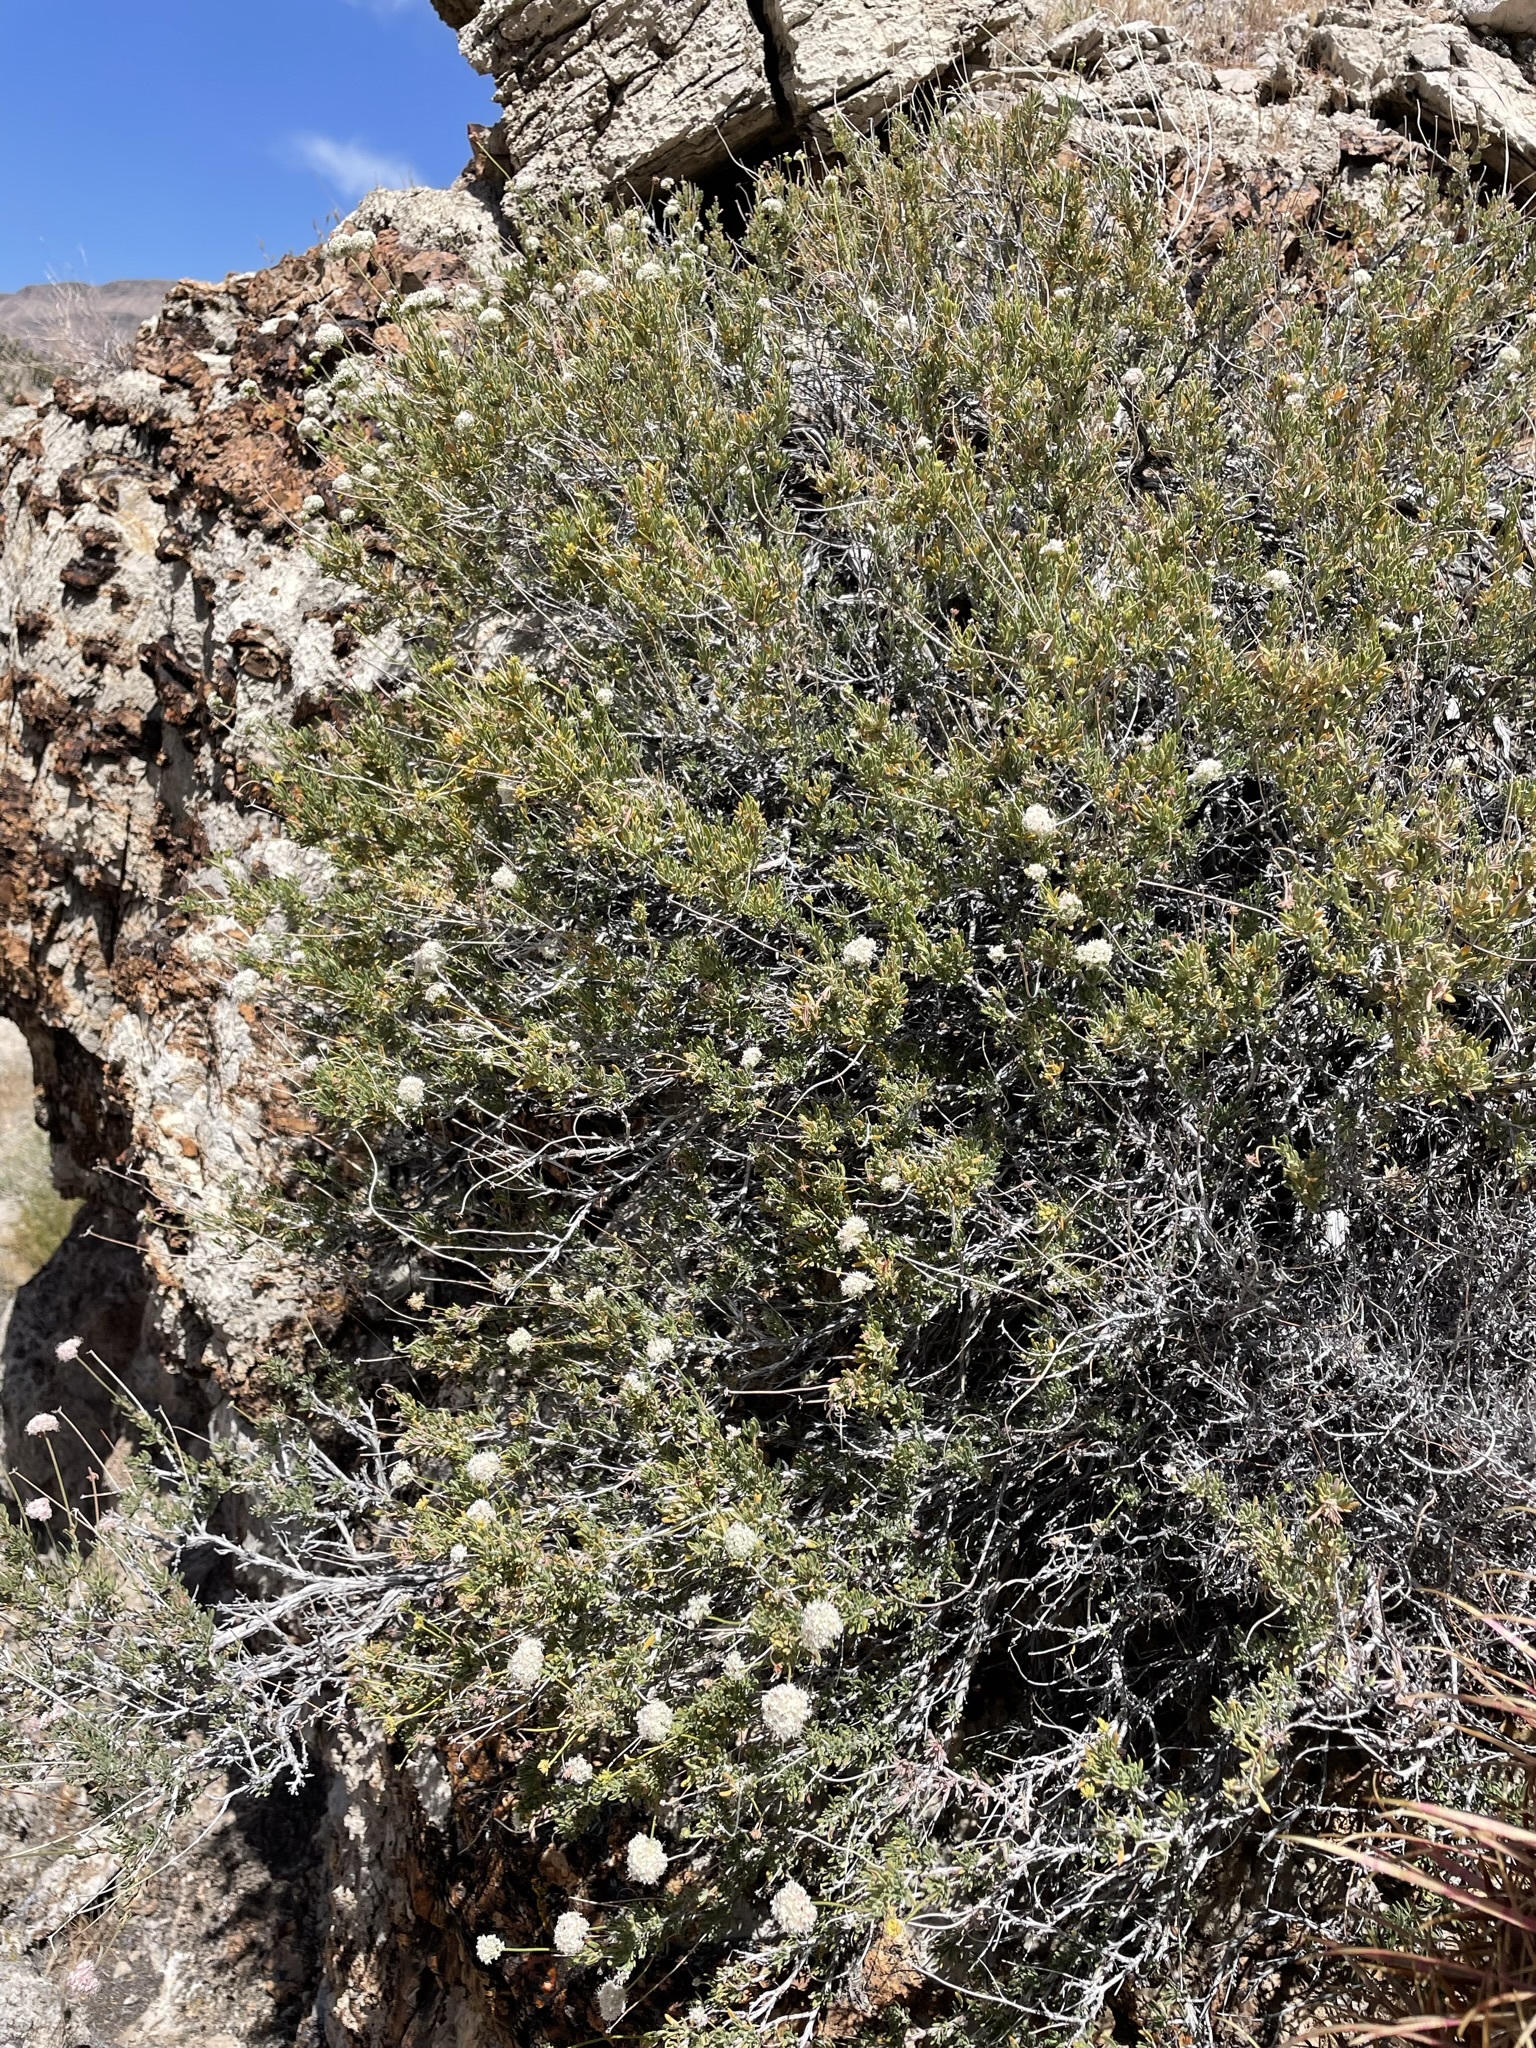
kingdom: Plantae
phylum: Tracheophyta
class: Magnoliopsida
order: Caryophyllales
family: Polygonaceae
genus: Eriogonum
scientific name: Eriogonum fasciculatum
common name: California wild buckwheat
